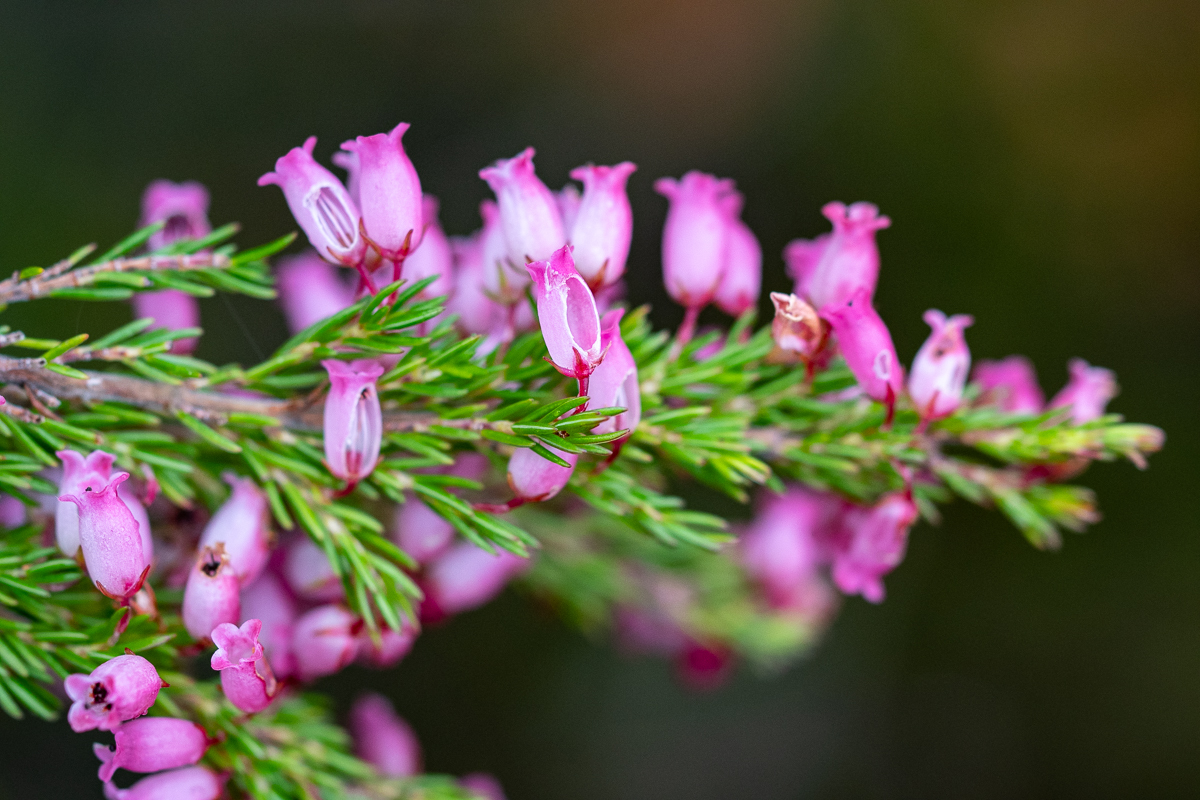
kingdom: Plantae
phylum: Tracheophyta
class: Magnoliopsida
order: Ericales
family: Ericaceae
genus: Erica
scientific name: Erica tenella
